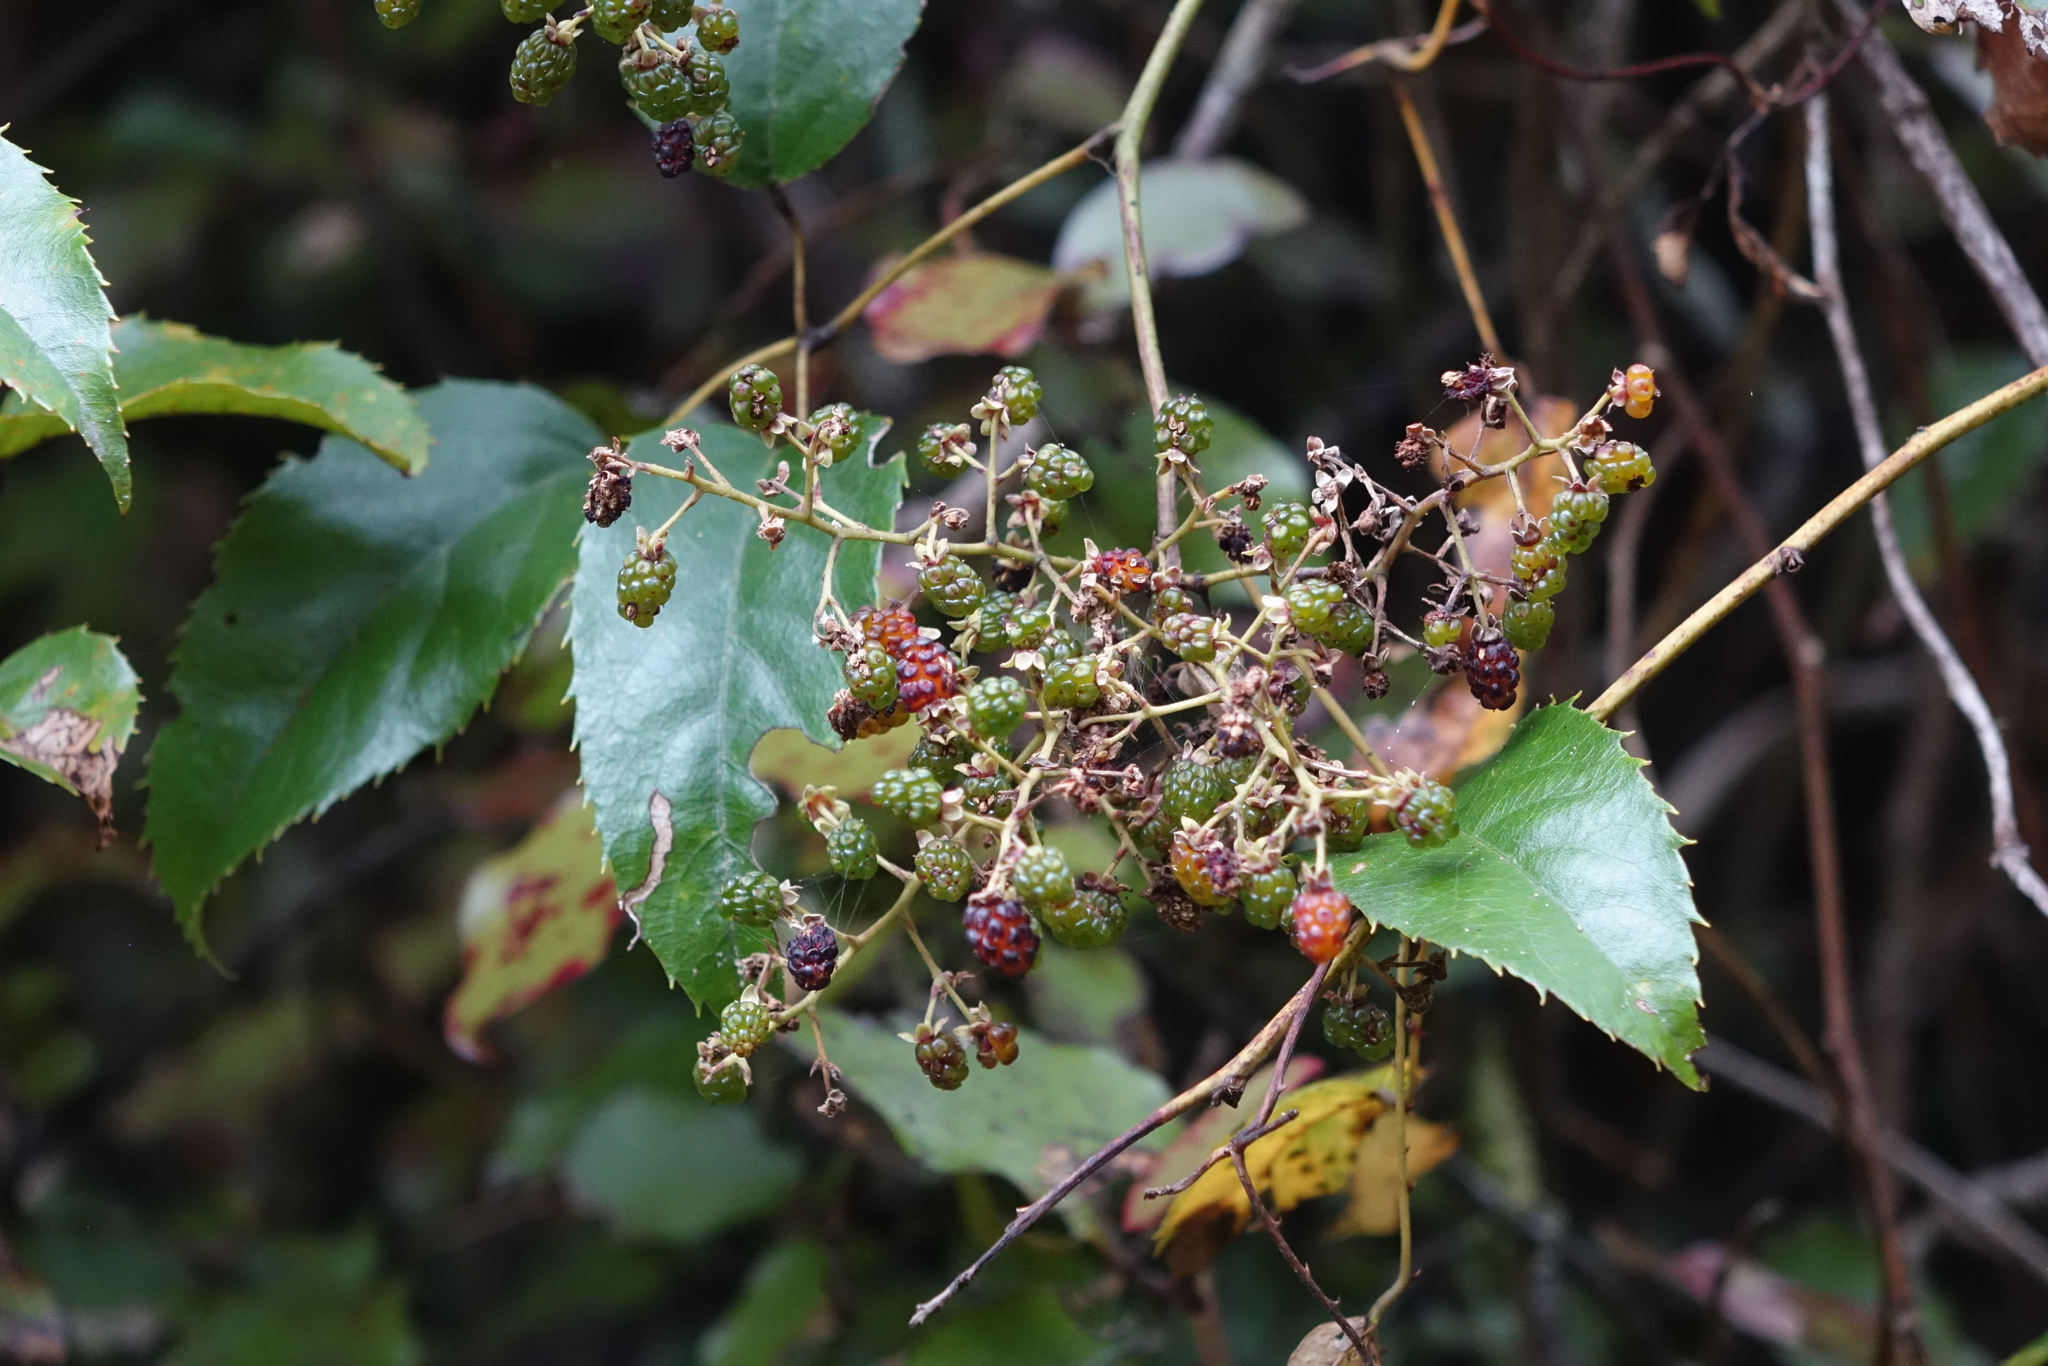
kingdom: Plantae
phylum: Tracheophyta
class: Magnoliopsida
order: Rosales
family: Rosaceae
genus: Rubus
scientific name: Rubus cissoides
